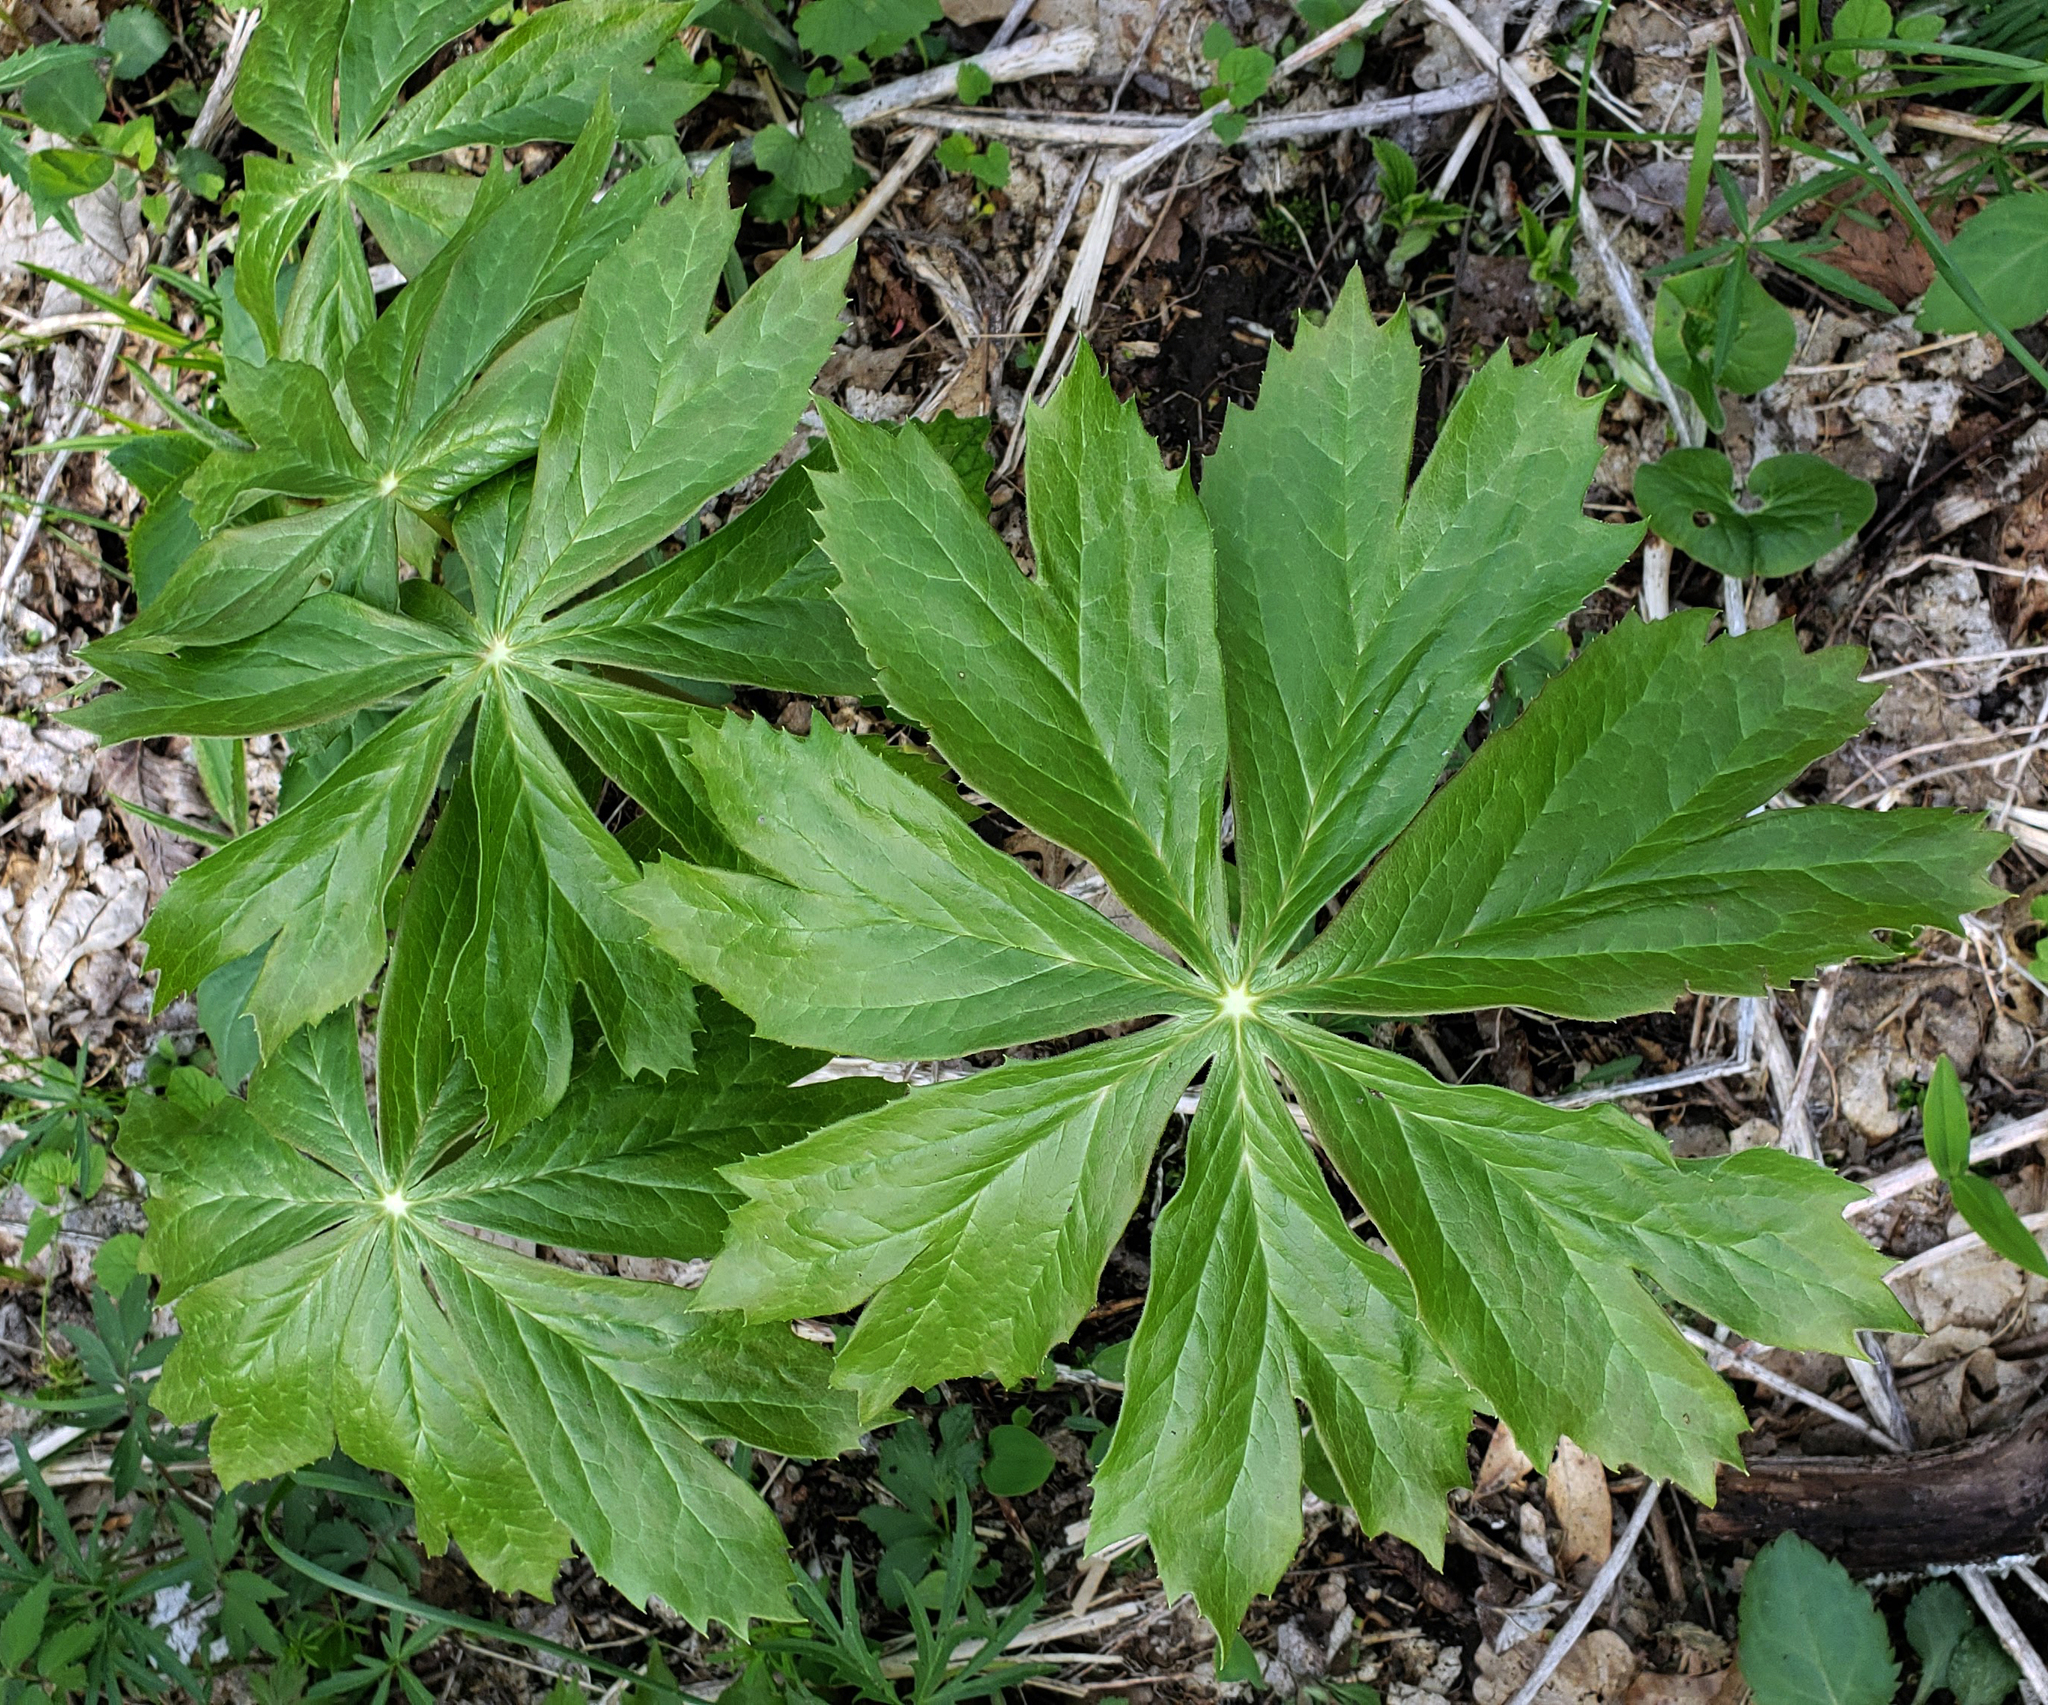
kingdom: Plantae
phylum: Tracheophyta
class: Magnoliopsida
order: Ranunculales
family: Berberidaceae
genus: Podophyllum
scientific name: Podophyllum peltatum
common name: Wild mandrake
